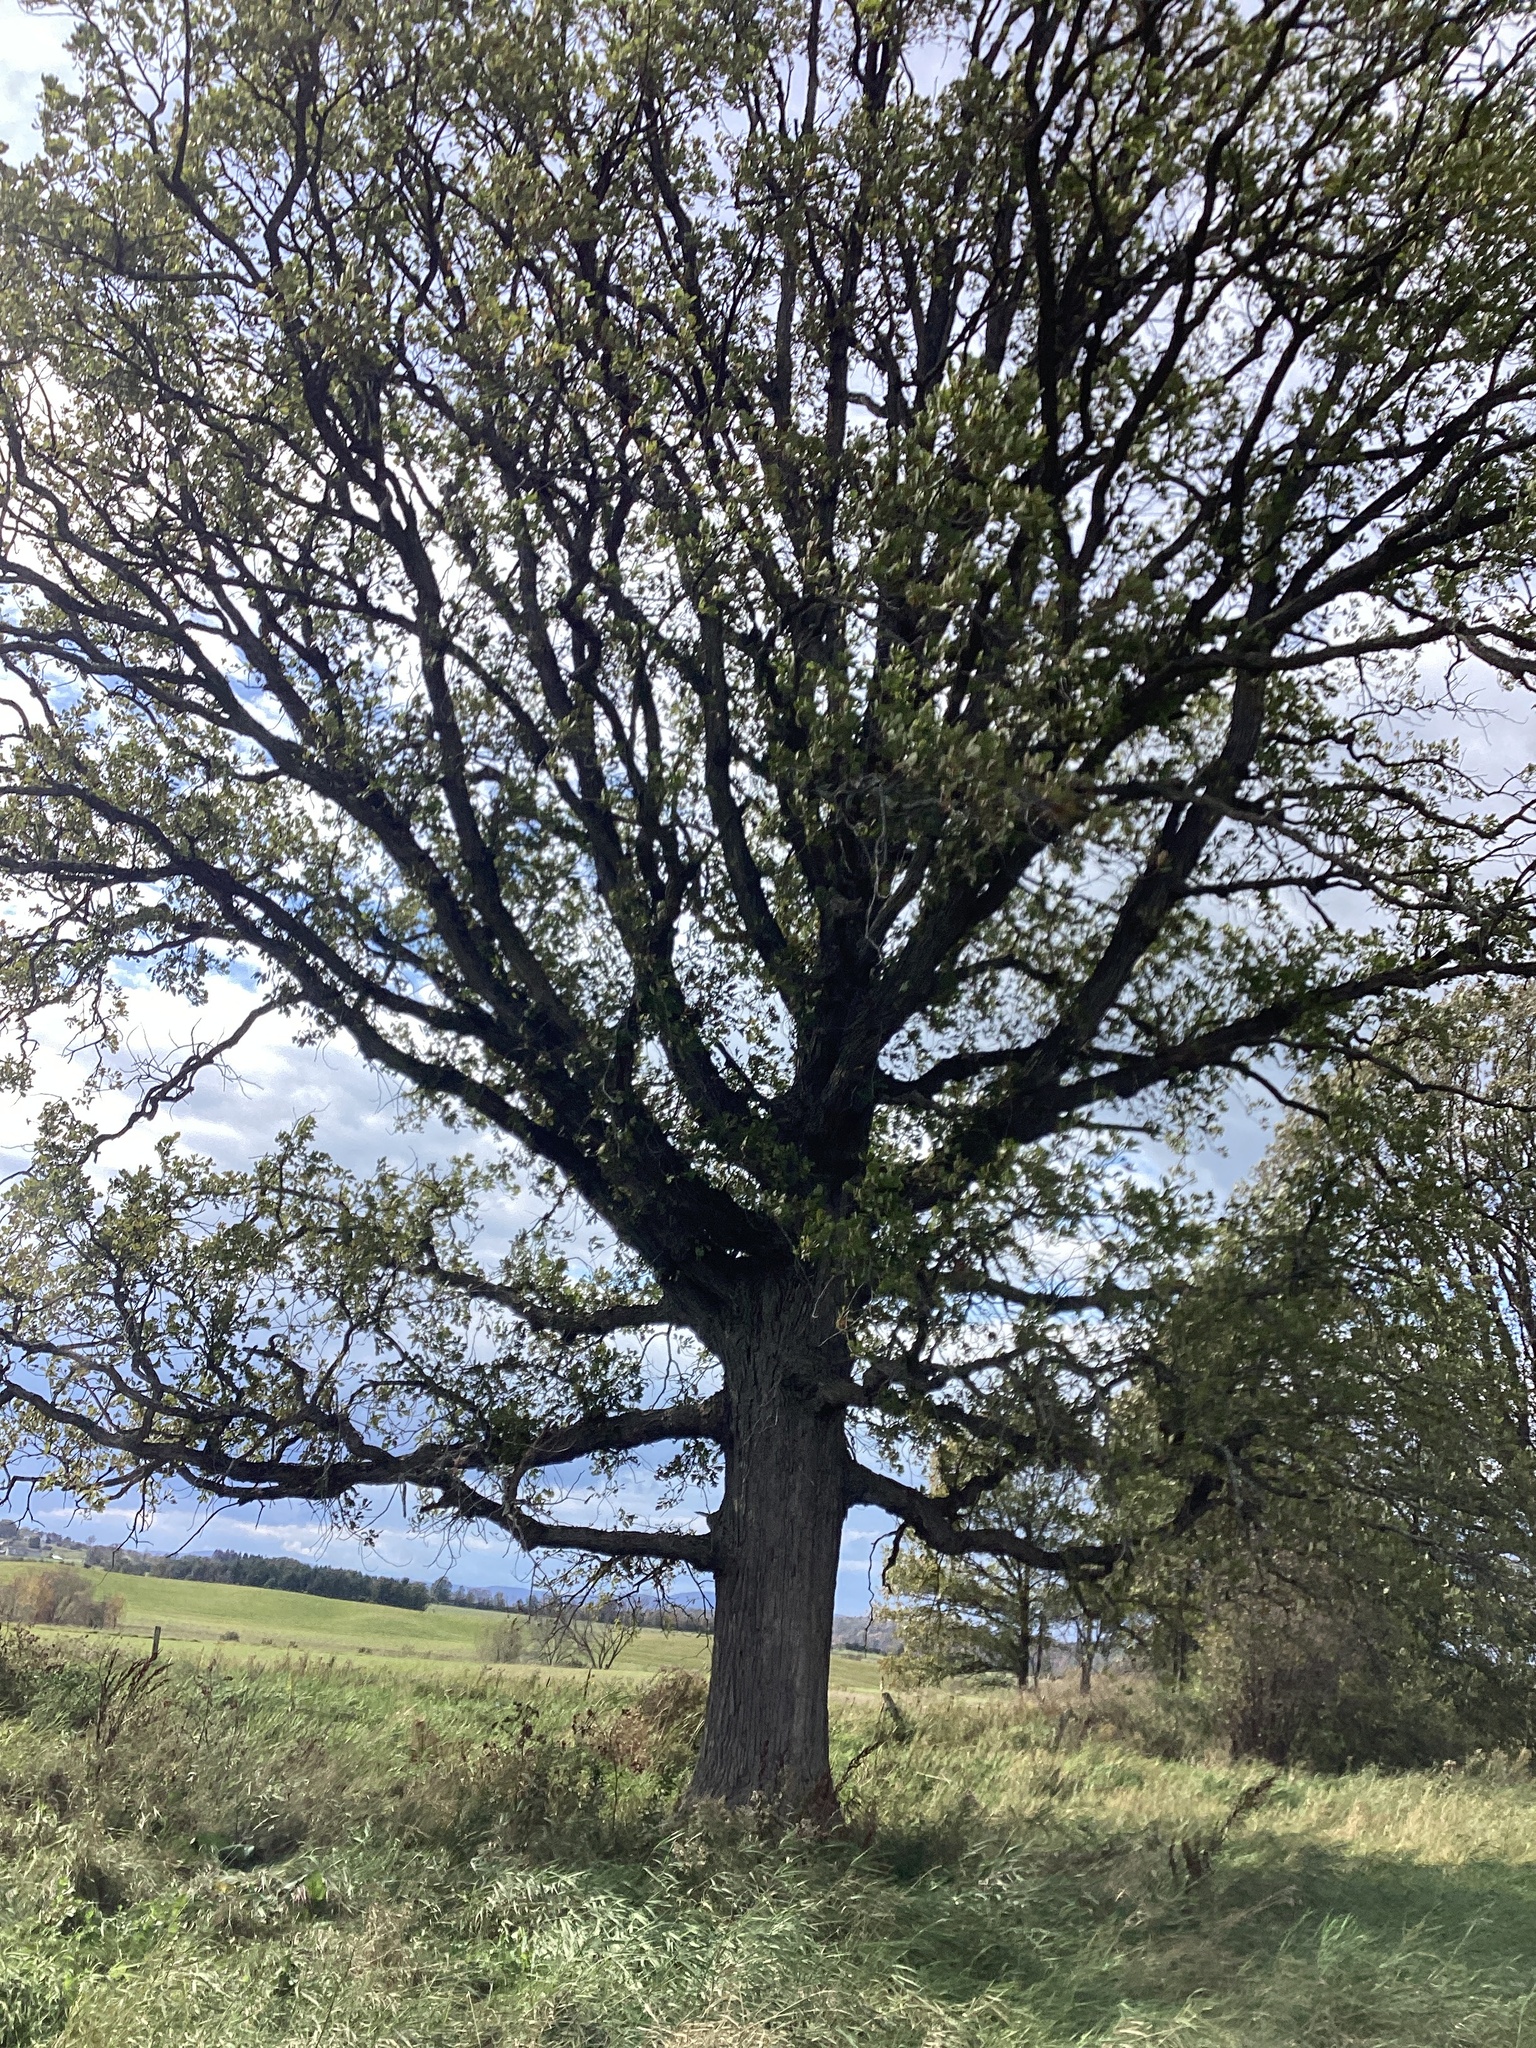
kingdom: Plantae
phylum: Tracheophyta
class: Magnoliopsida
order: Fagales
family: Fagaceae
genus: Quercus
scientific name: Quercus bicolor
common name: Swamp white oak
